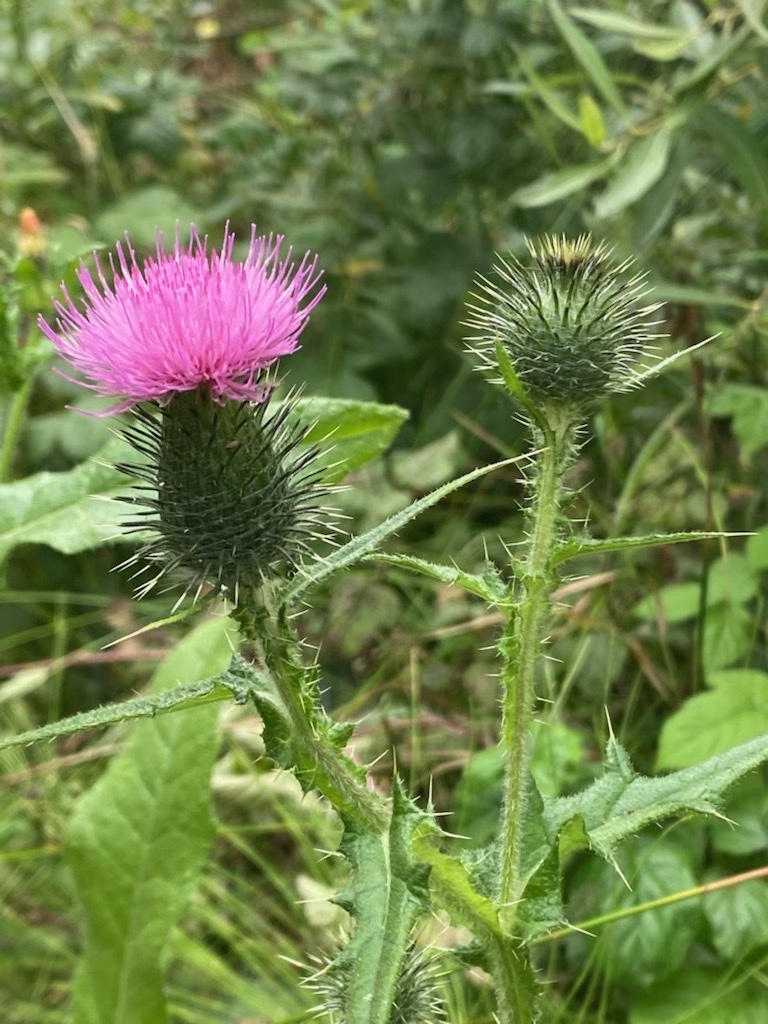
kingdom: Plantae
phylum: Tracheophyta
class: Magnoliopsida
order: Asterales
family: Asteraceae
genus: Cirsium
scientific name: Cirsium vulgare
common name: Bull thistle
